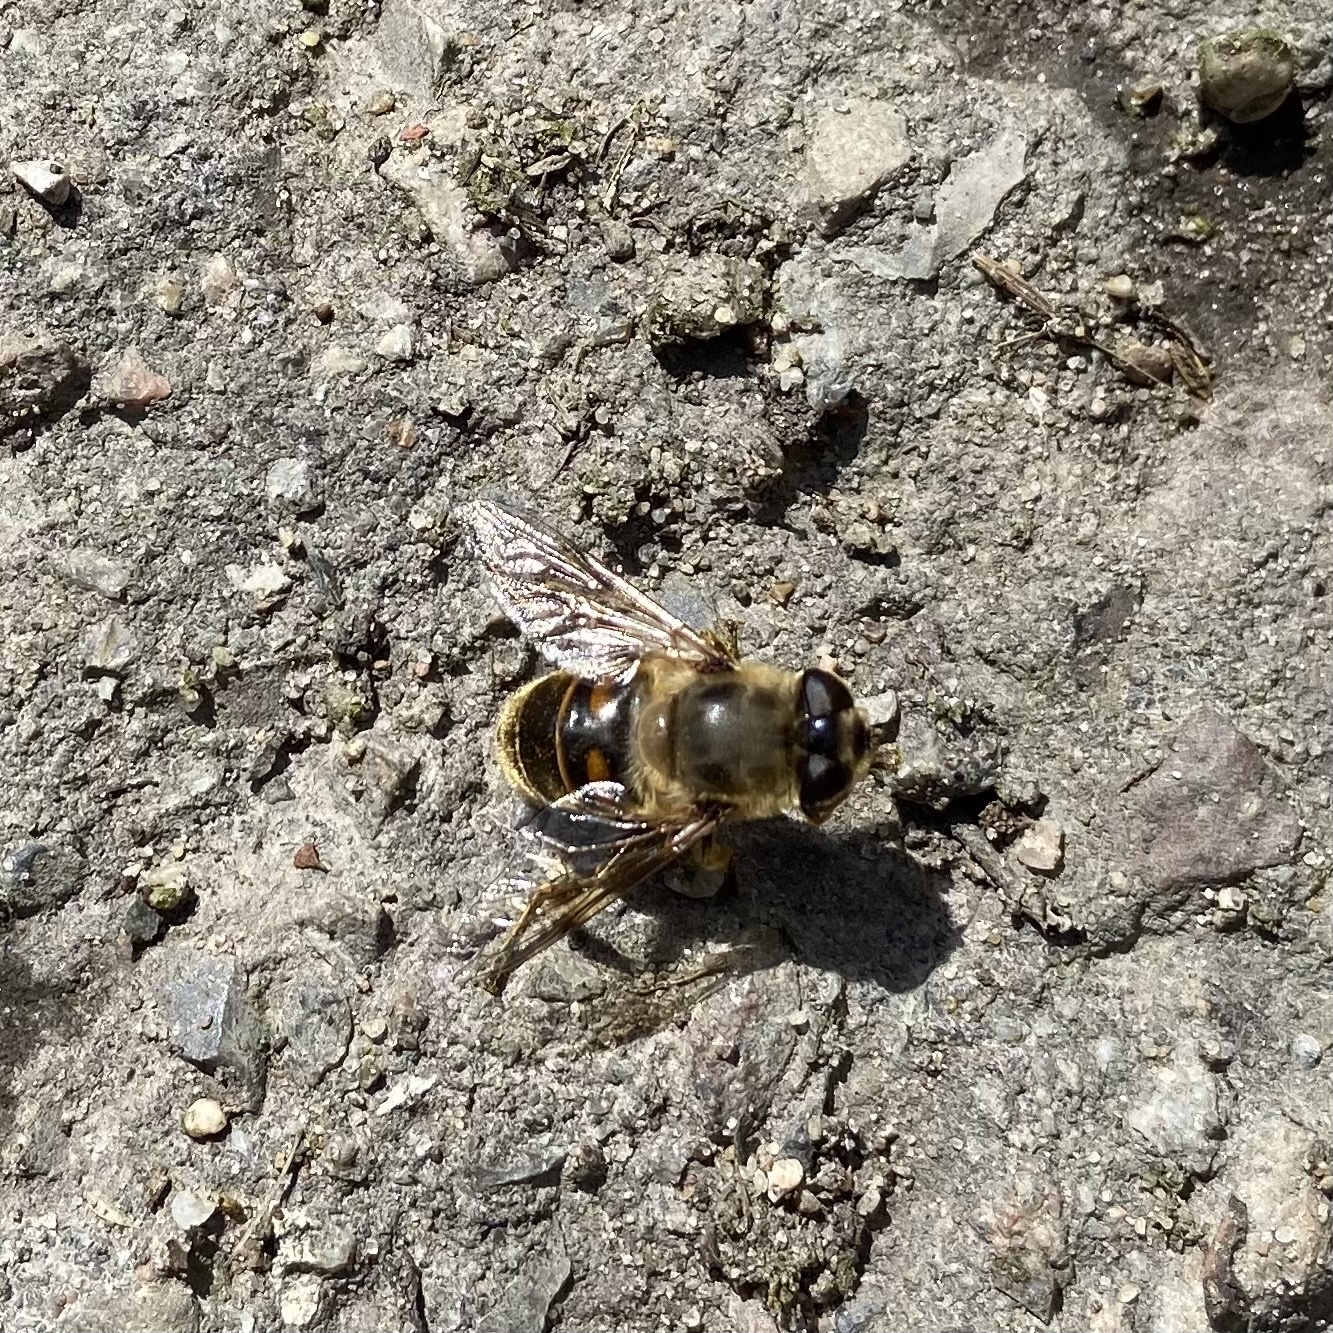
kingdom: Animalia
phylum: Arthropoda
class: Insecta
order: Diptera
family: Syrphidae
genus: Eristalis
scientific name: Eristalis tenax
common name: Drone fly
